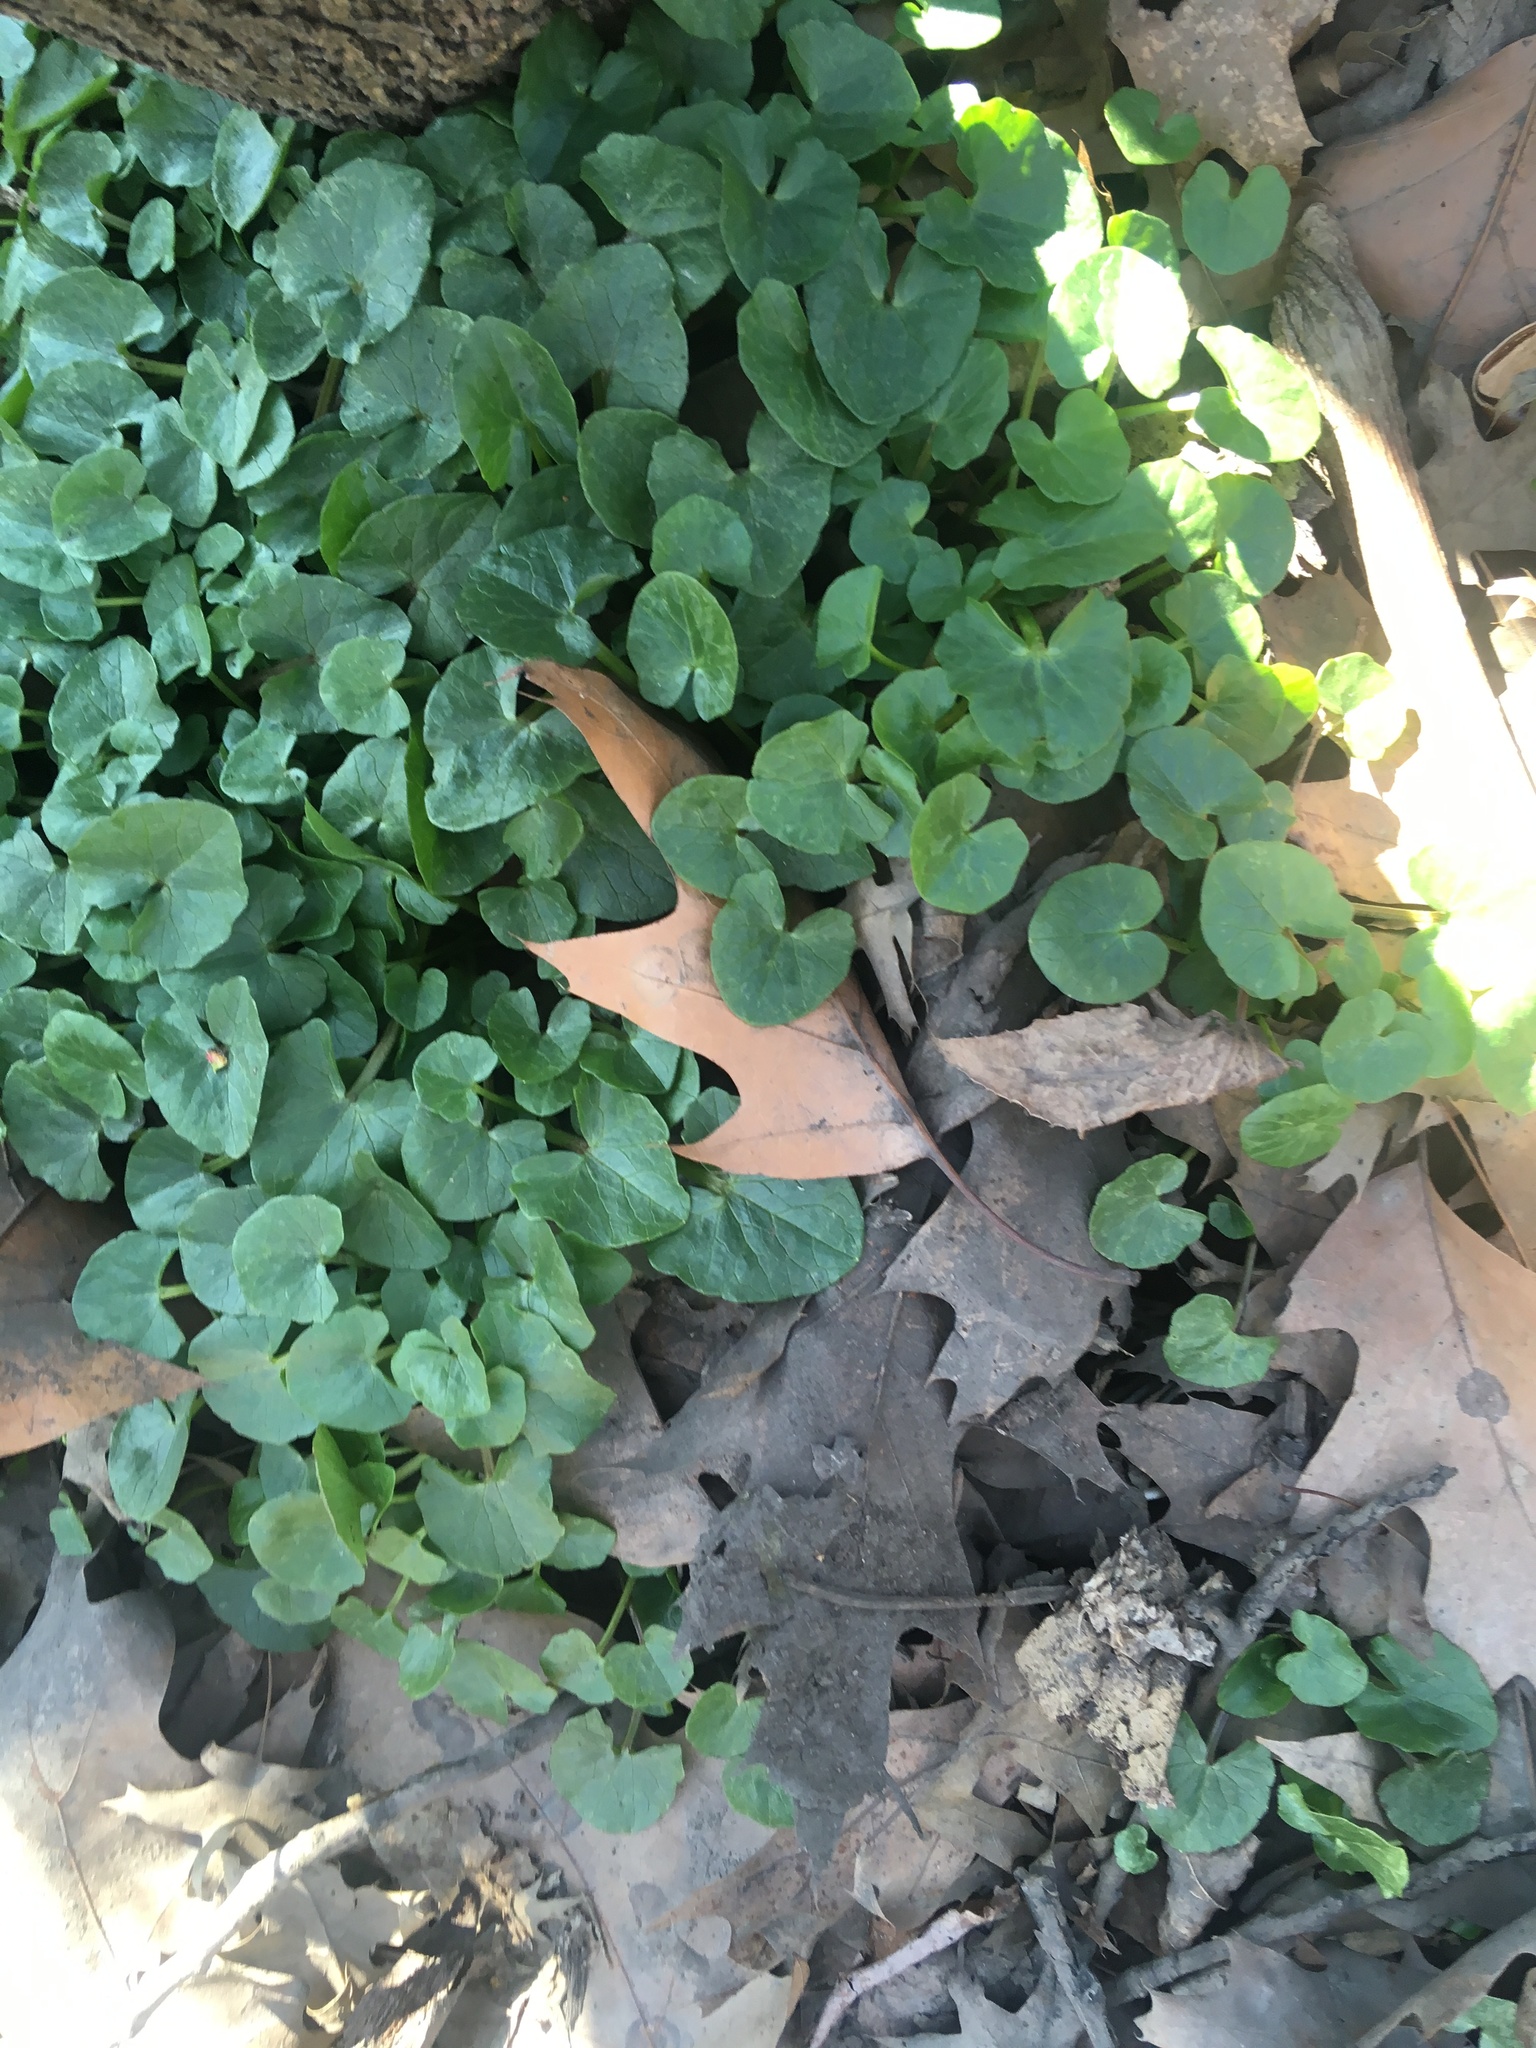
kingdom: Plantae
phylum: Tracheophyta
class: Magnoliopsida
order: Ranunculales
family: Ranunculaceae
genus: Ficaria
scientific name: Ficaria verna
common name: Lesser celandine
